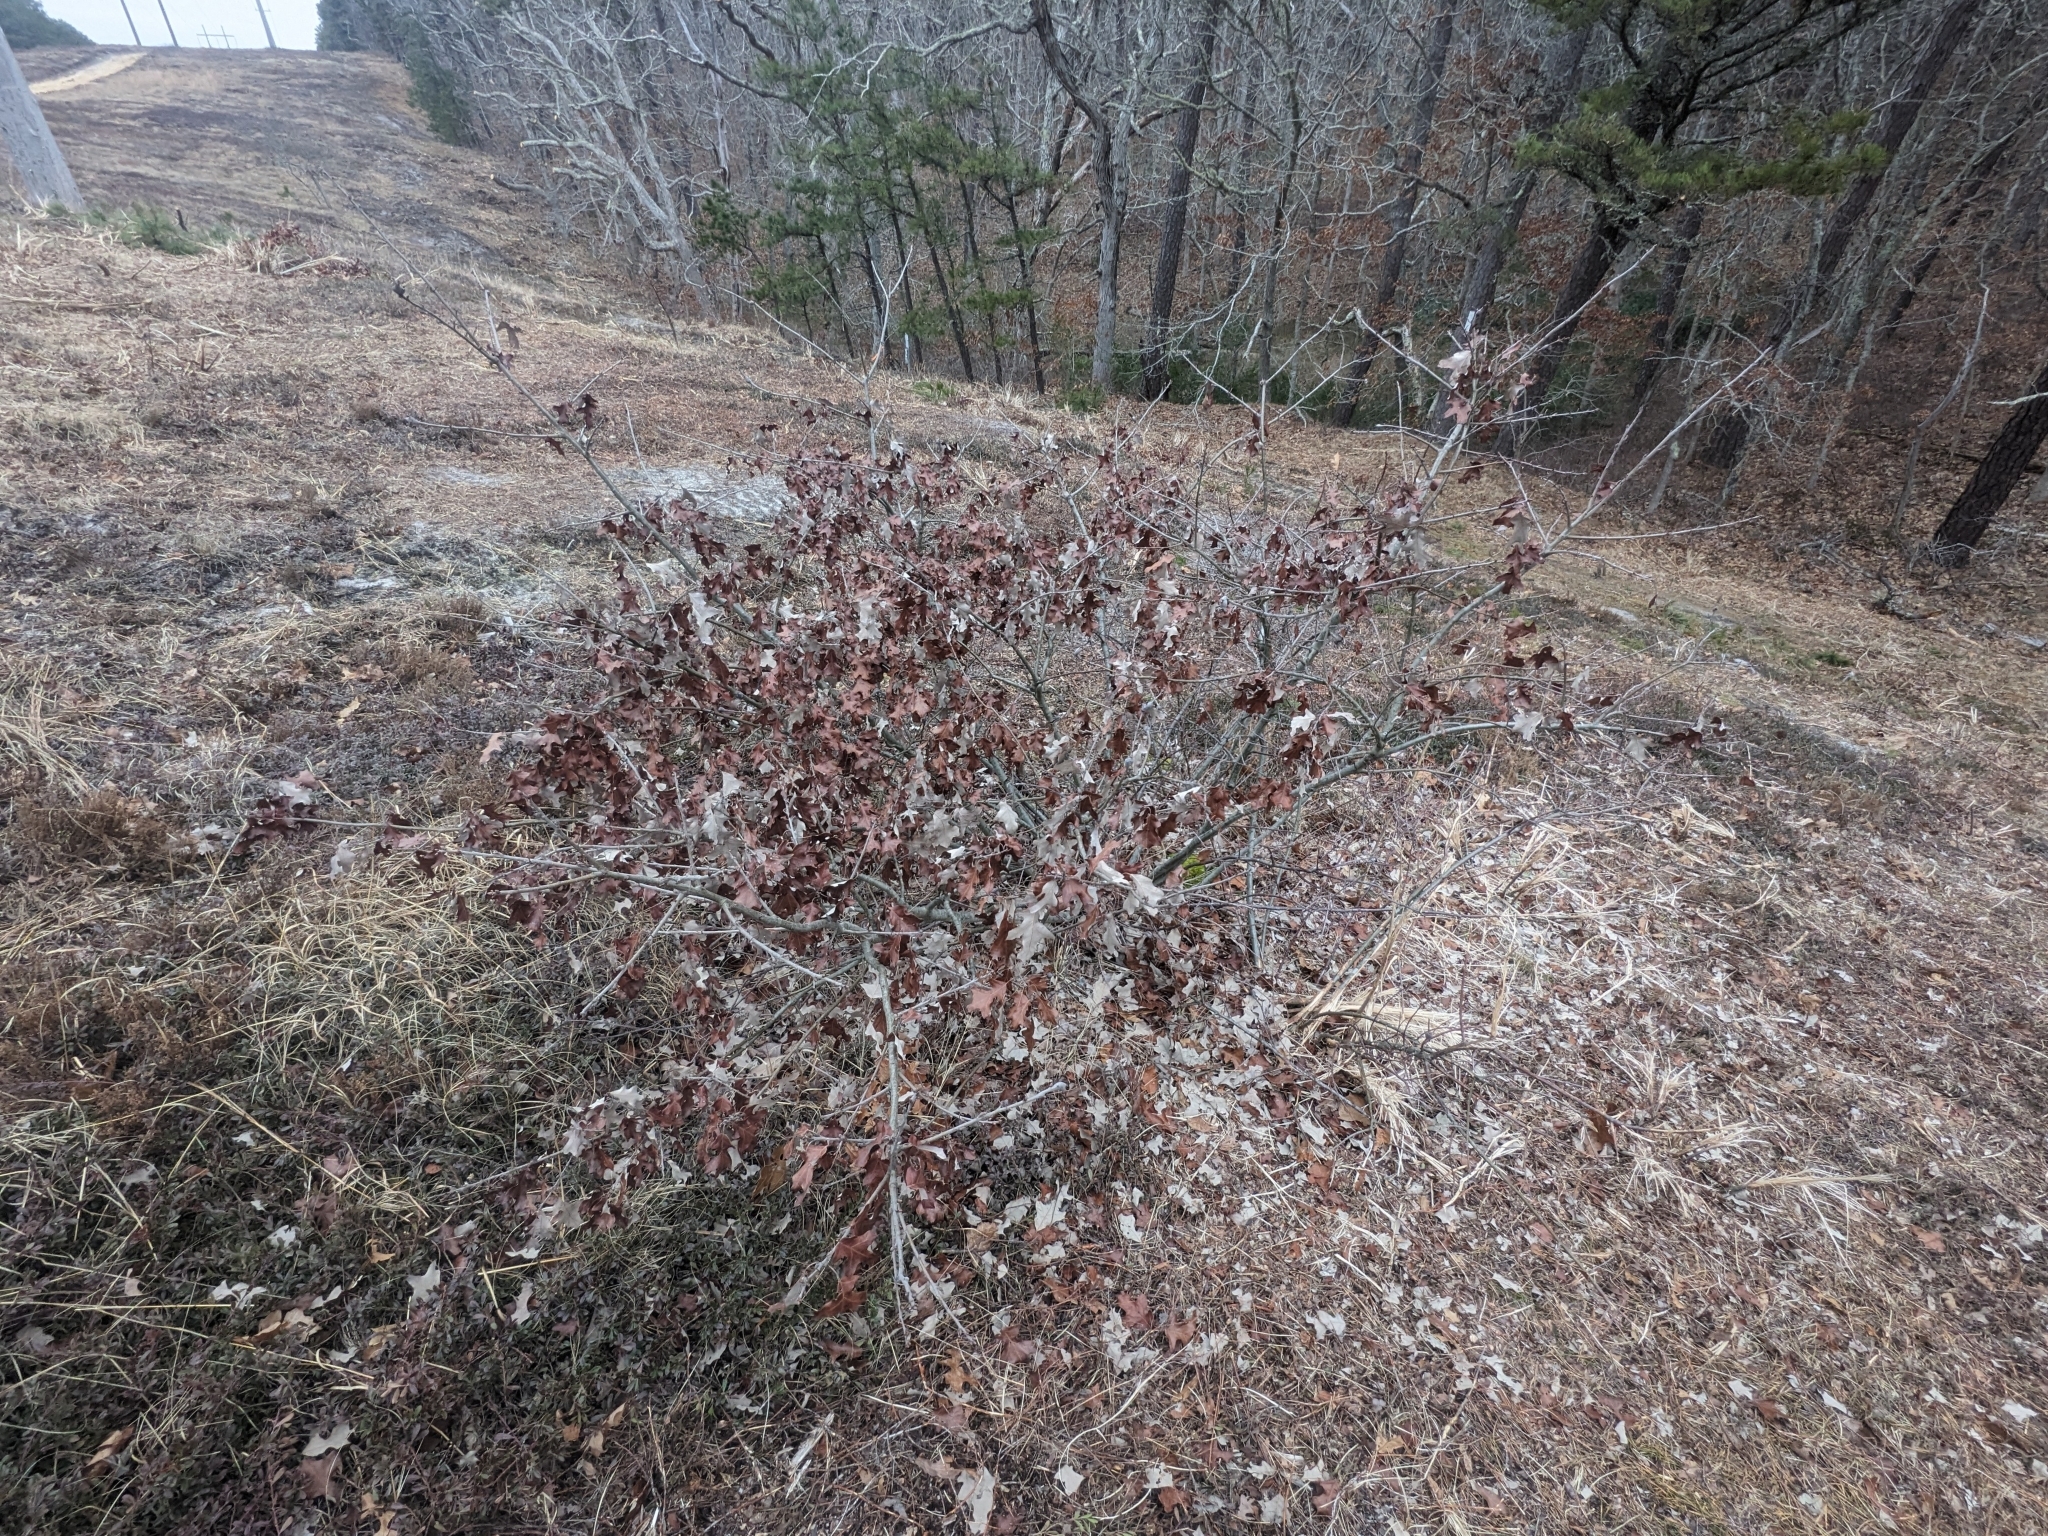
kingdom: Plantae
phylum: Tracheophyta
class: Magnoliopsida
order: Fagales
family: Fagaceae
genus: Quercus
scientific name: Quercus ilicifolia
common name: Bear oak
